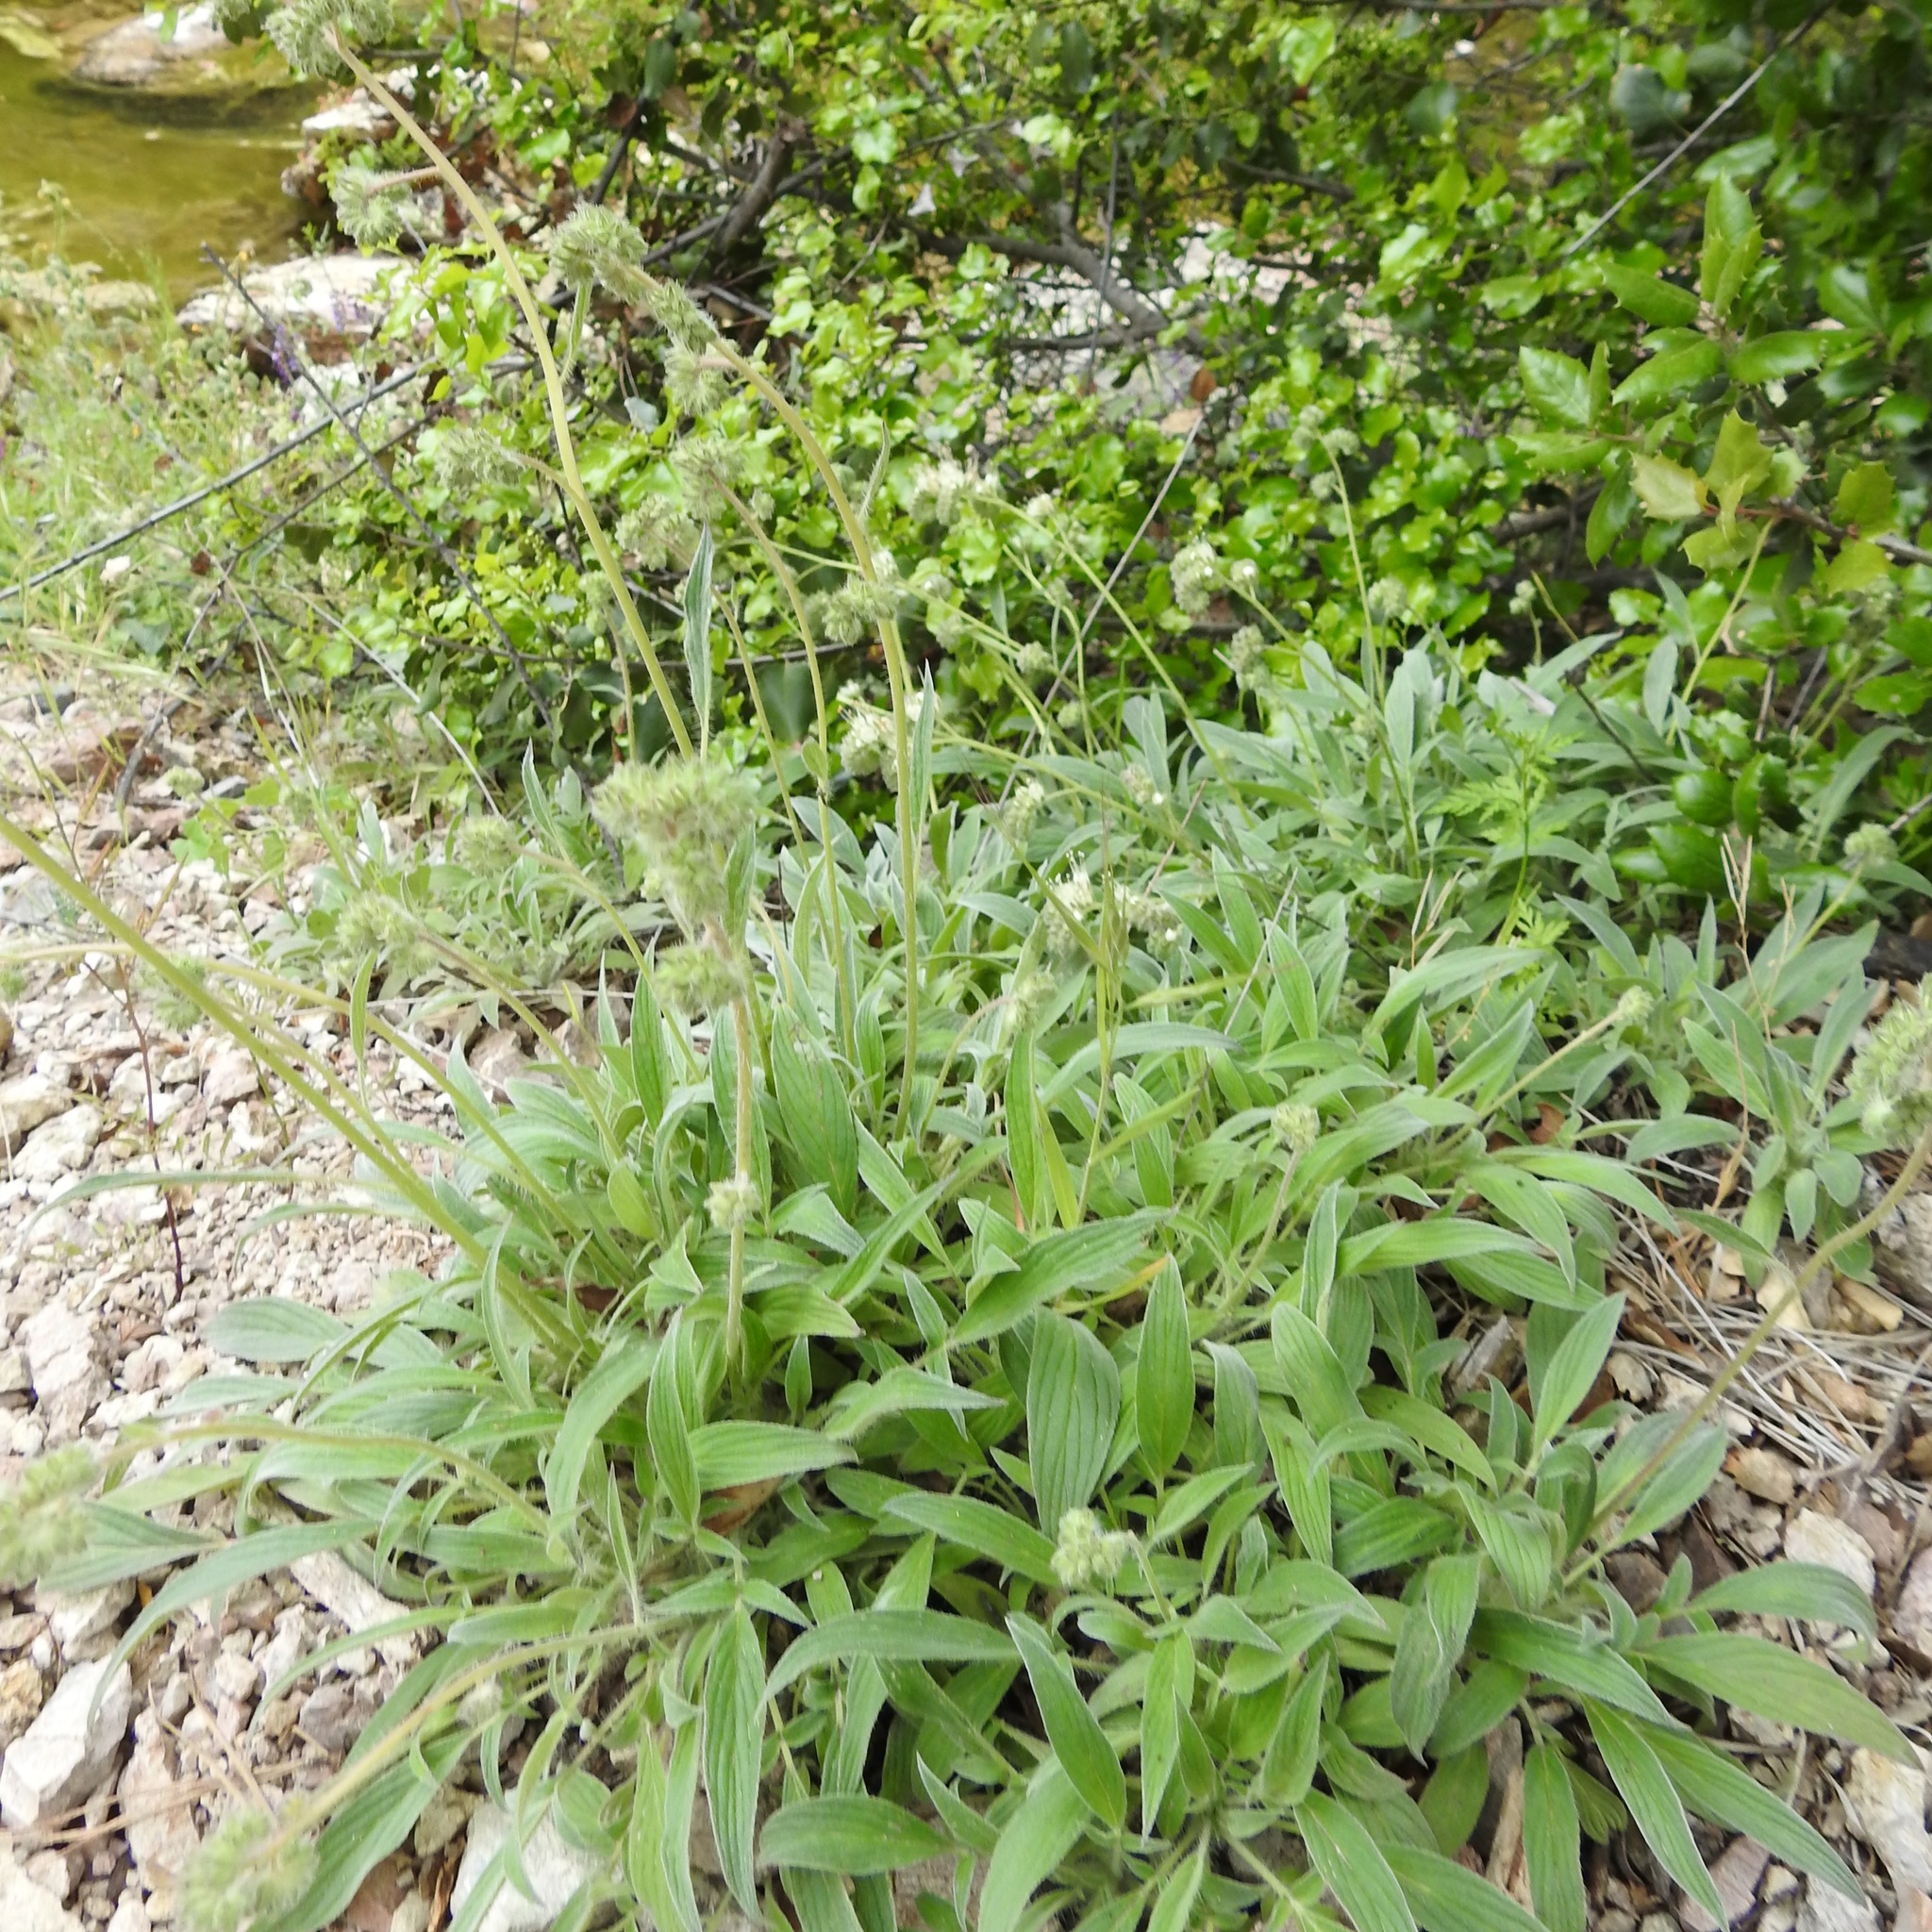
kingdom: Plantae
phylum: Tracheophyta
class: Magnoliopsida
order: Boraginales
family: Hydrophyllaceae
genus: Phacelia
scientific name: Phacelia imbricata
